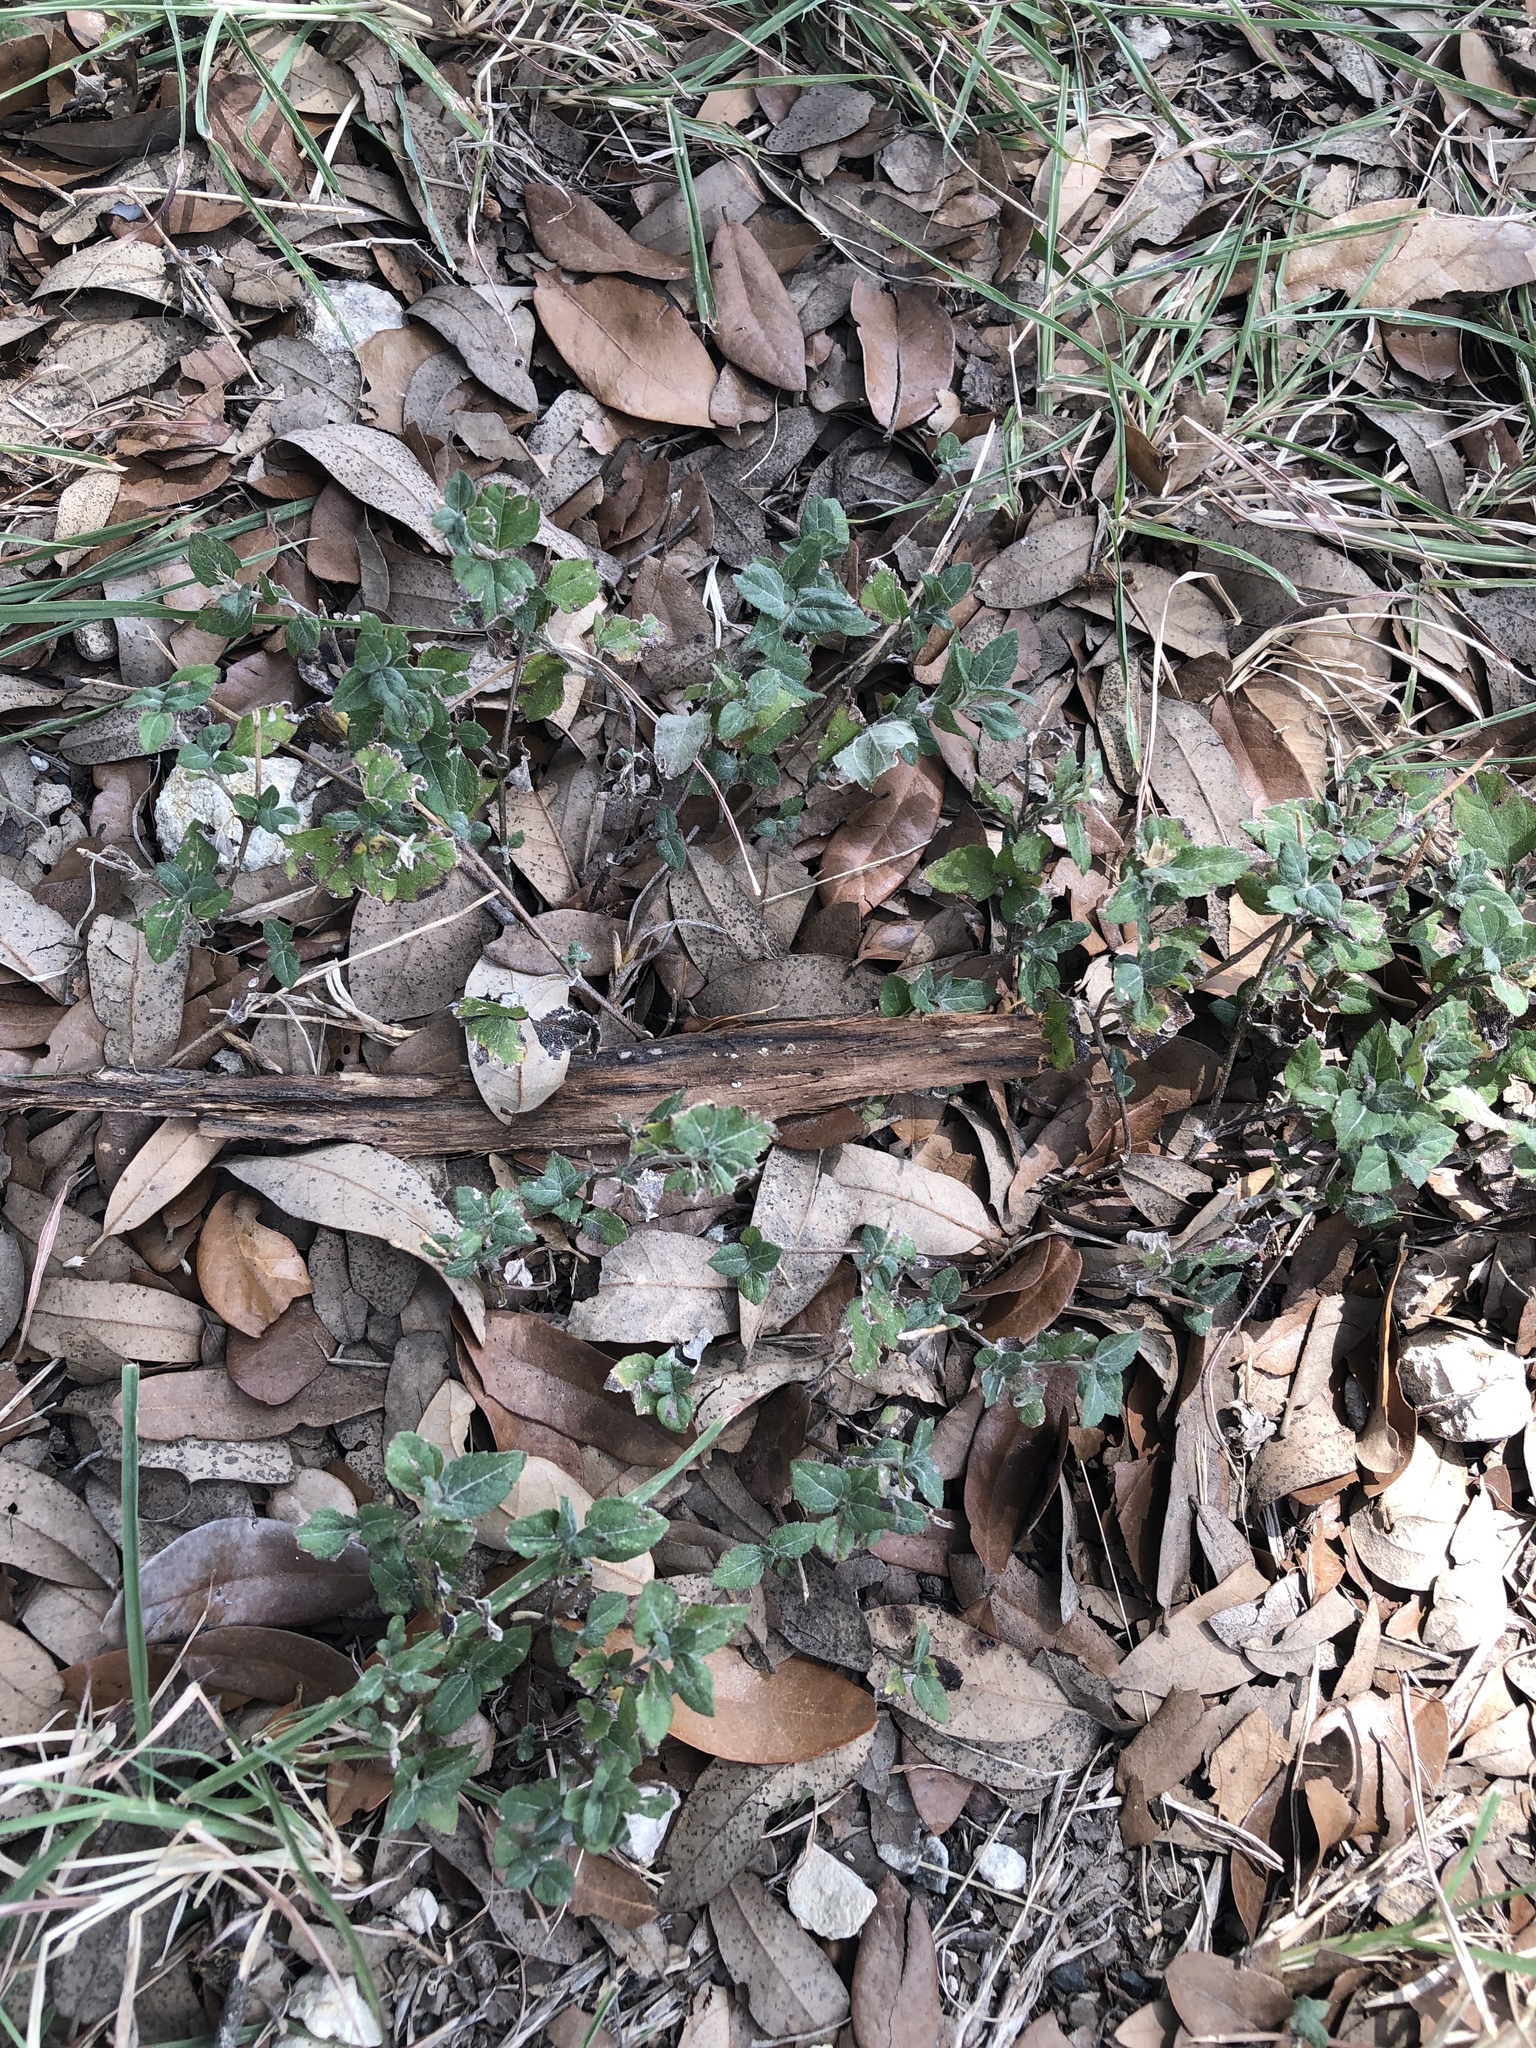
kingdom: Plantae
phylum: Tracheophyta
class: Magnoliopsida
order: Asterales
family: Asteraceae
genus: Calyptocarpus
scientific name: Calyptocarpus vialis
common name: Straggler daisy
